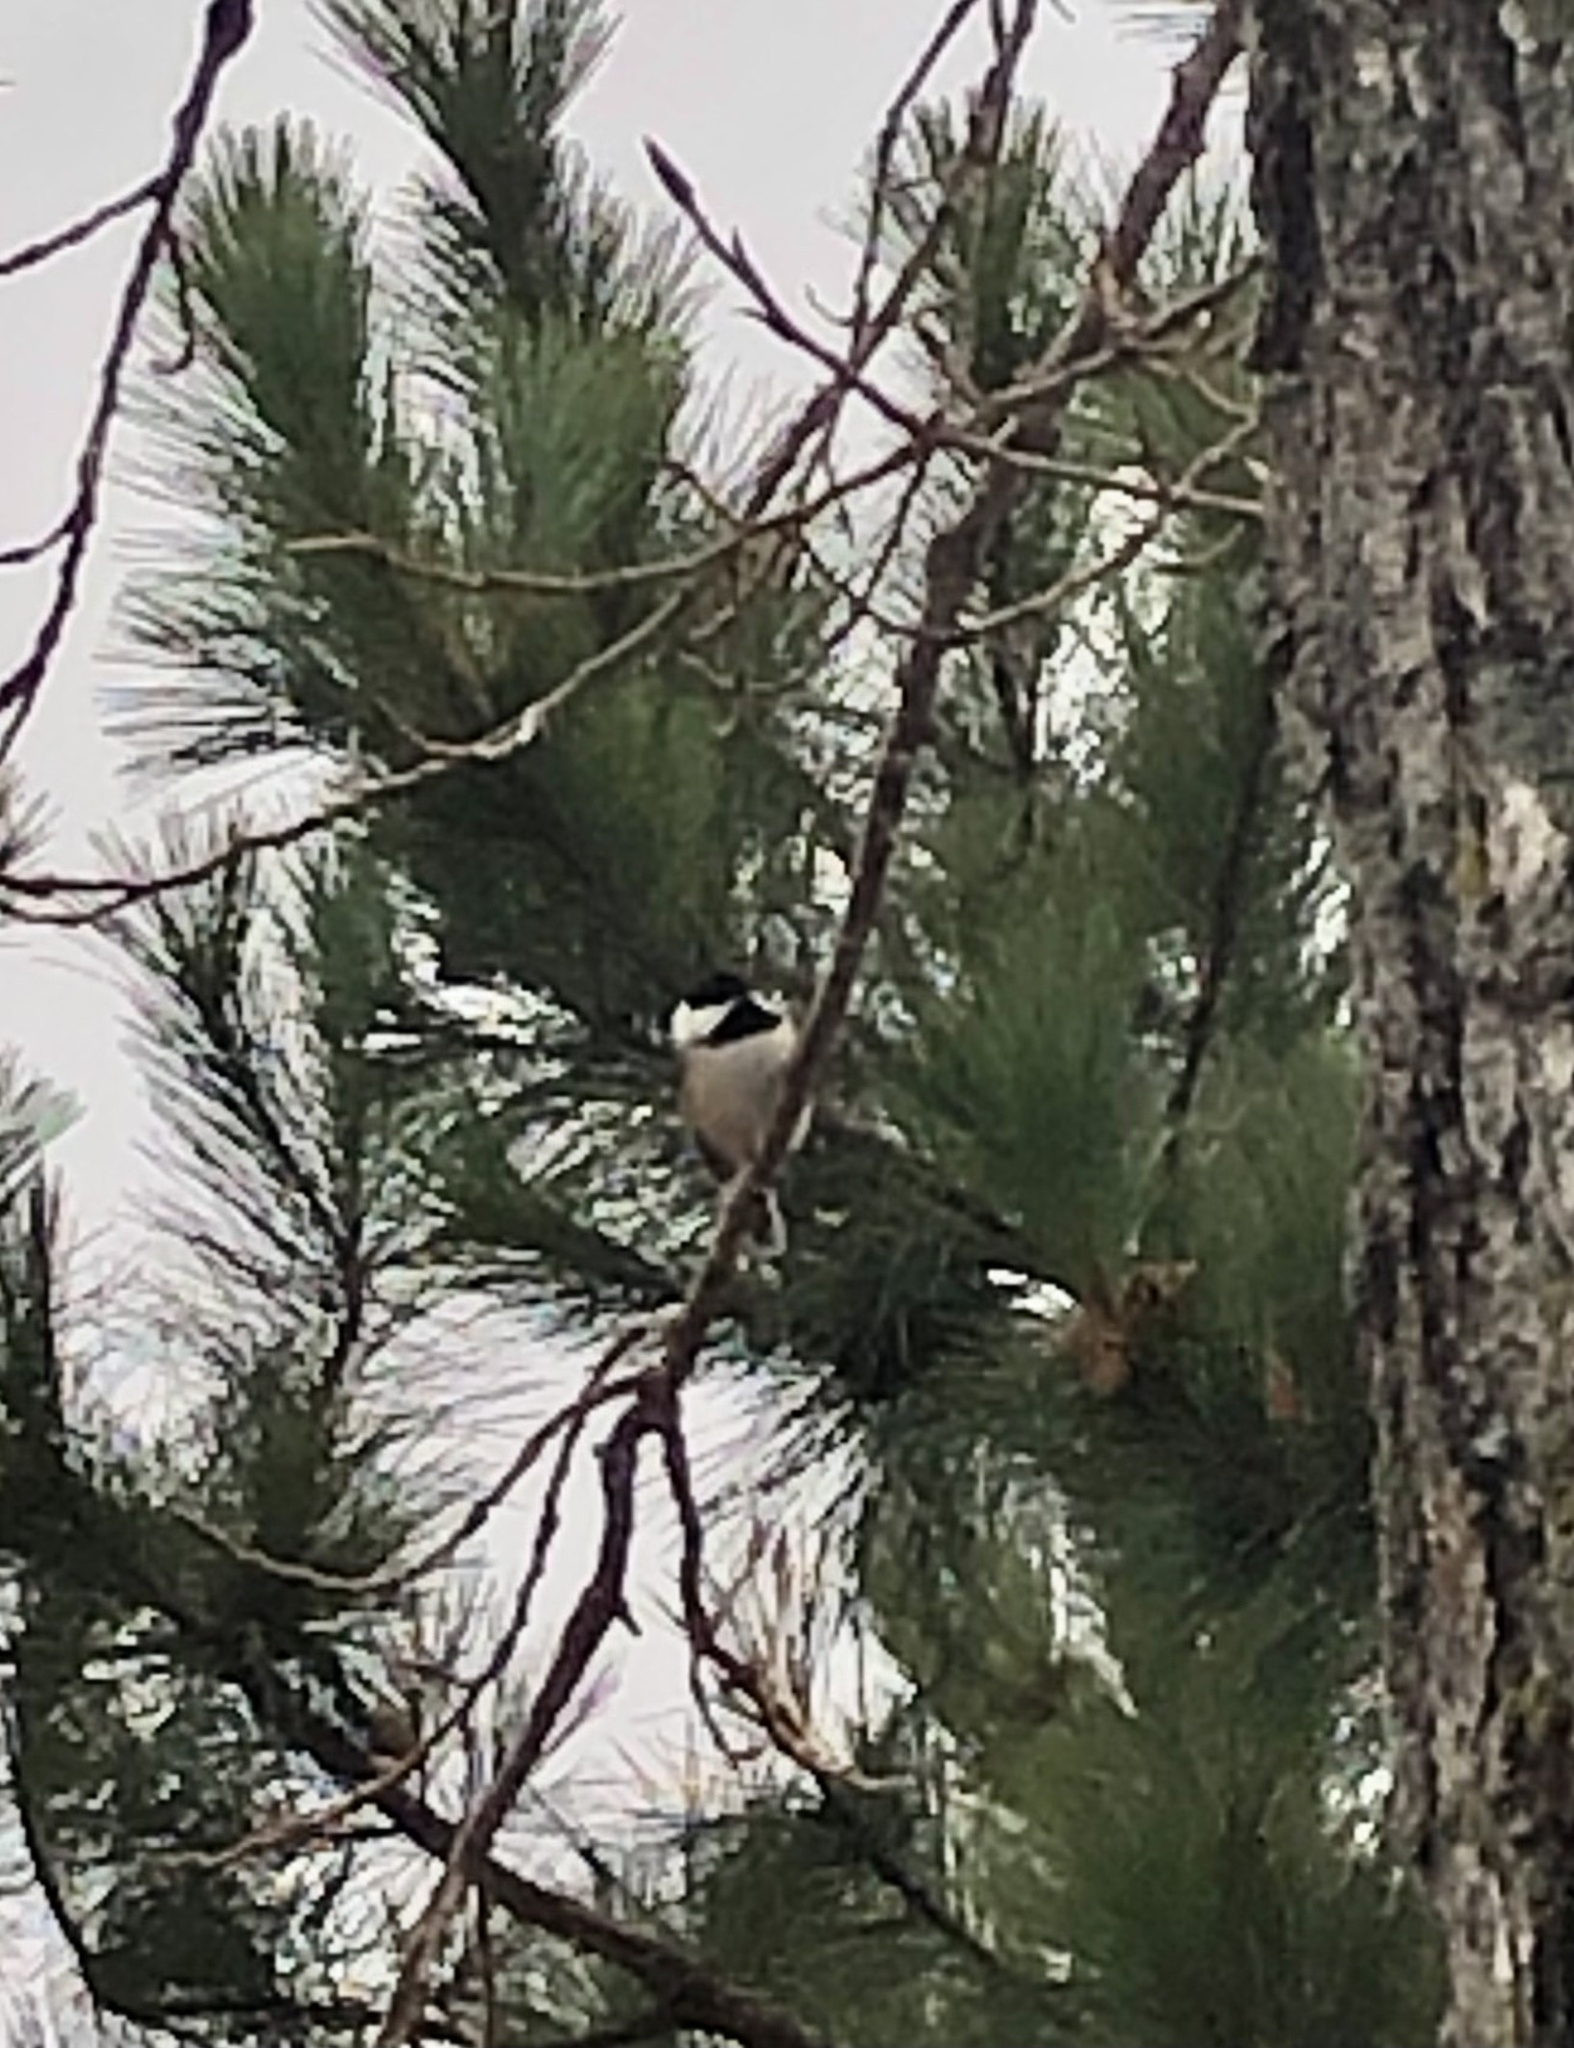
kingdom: Animalia
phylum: Chordata
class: Aves
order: Passeriformes
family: Paridae
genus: Poecile
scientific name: Poecile atricapillus
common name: Black-capped chickadee
